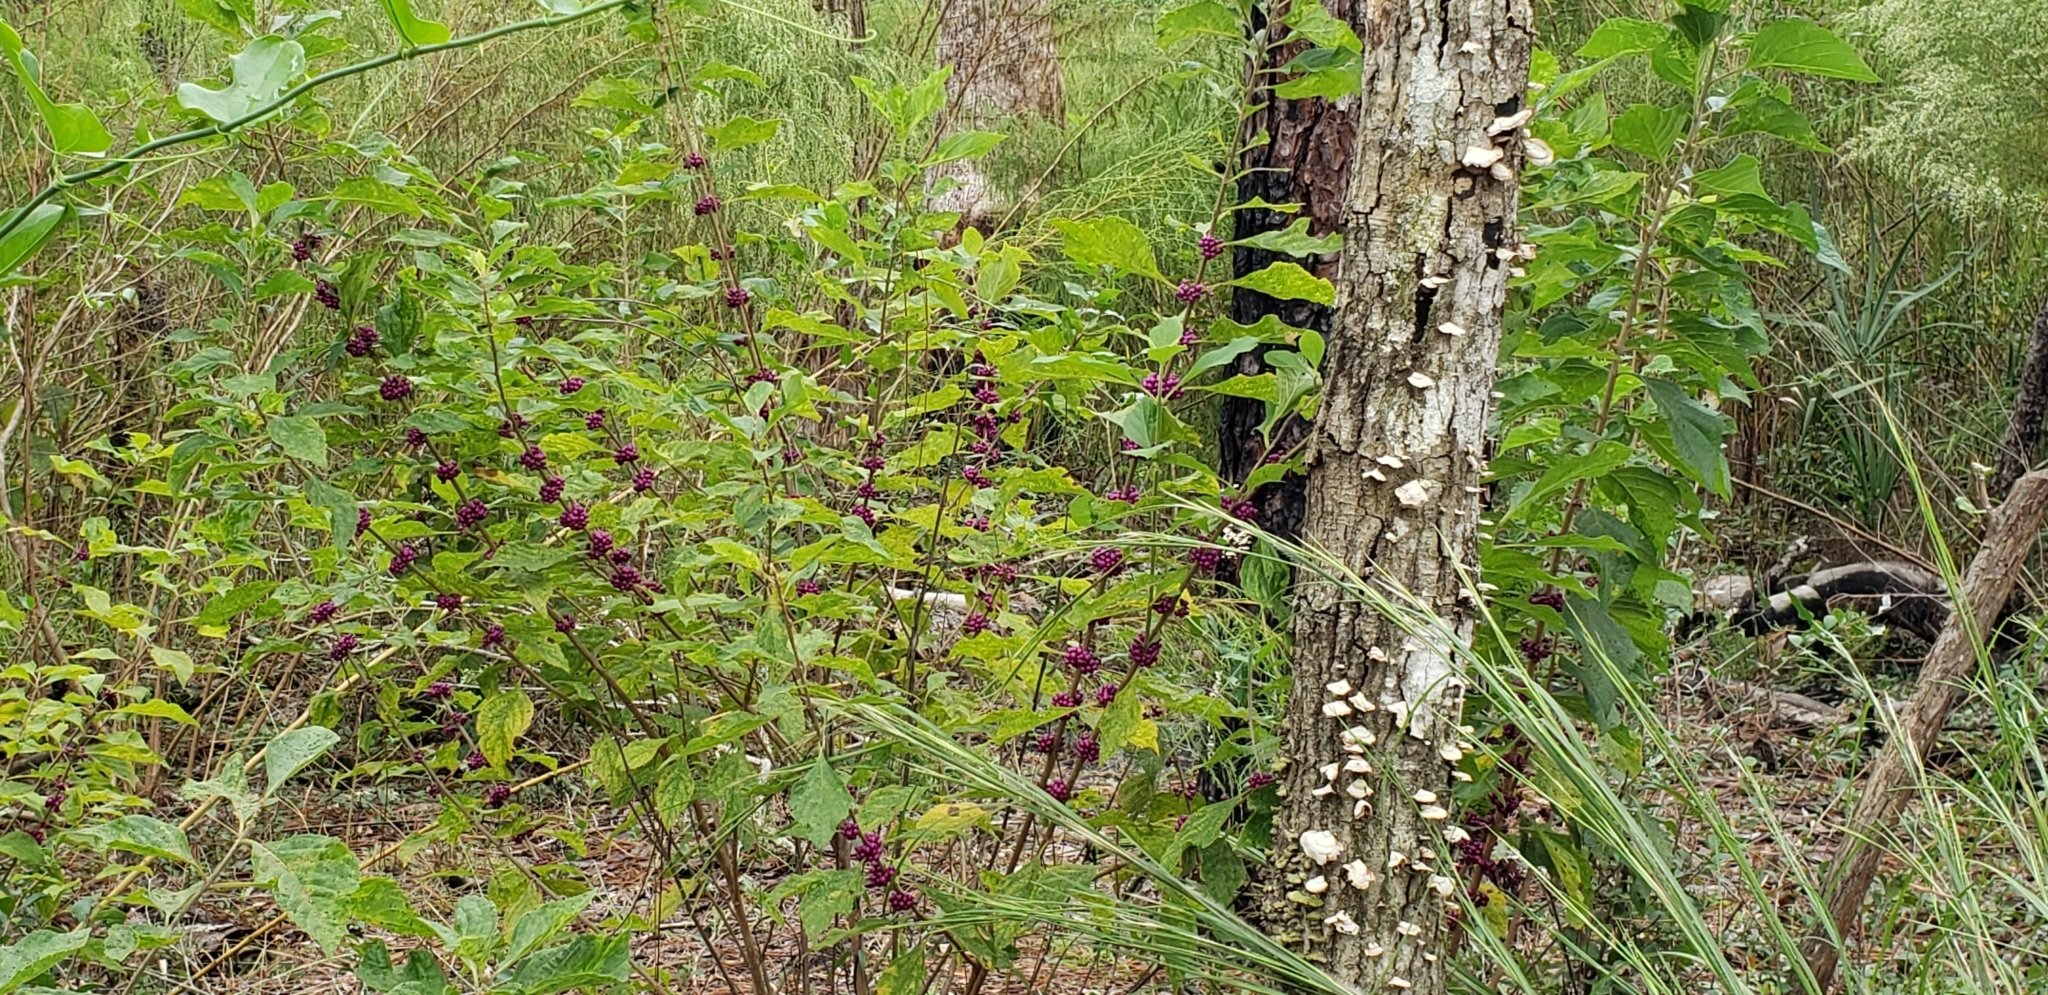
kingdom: Plantae
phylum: Tracheophyta
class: Magnoliopsida
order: Lamiales
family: Lamiaceae
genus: Callicarpa
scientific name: Callicarpa americana
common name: American beautyberry
